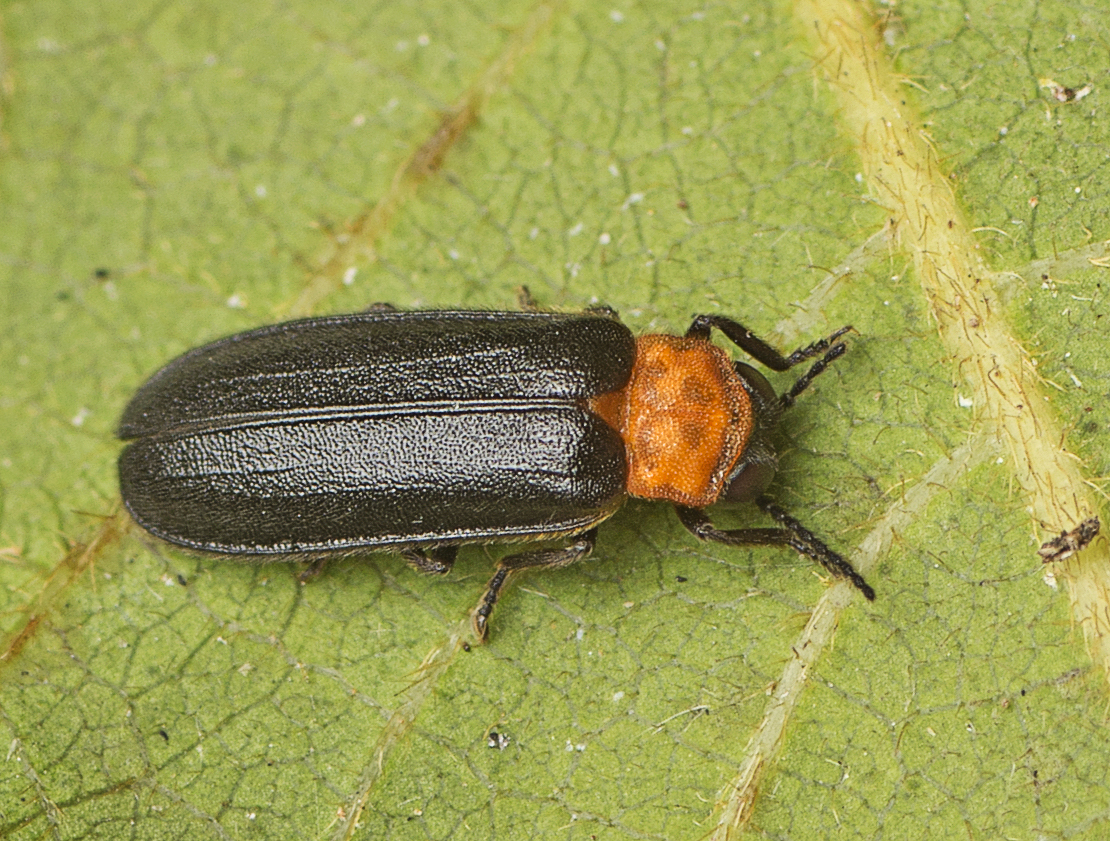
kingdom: Animalia
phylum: Arthropoda
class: Insecta
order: Coleoptera
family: Lampyridae
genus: Australoluciola
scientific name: Australoluciola nigra
